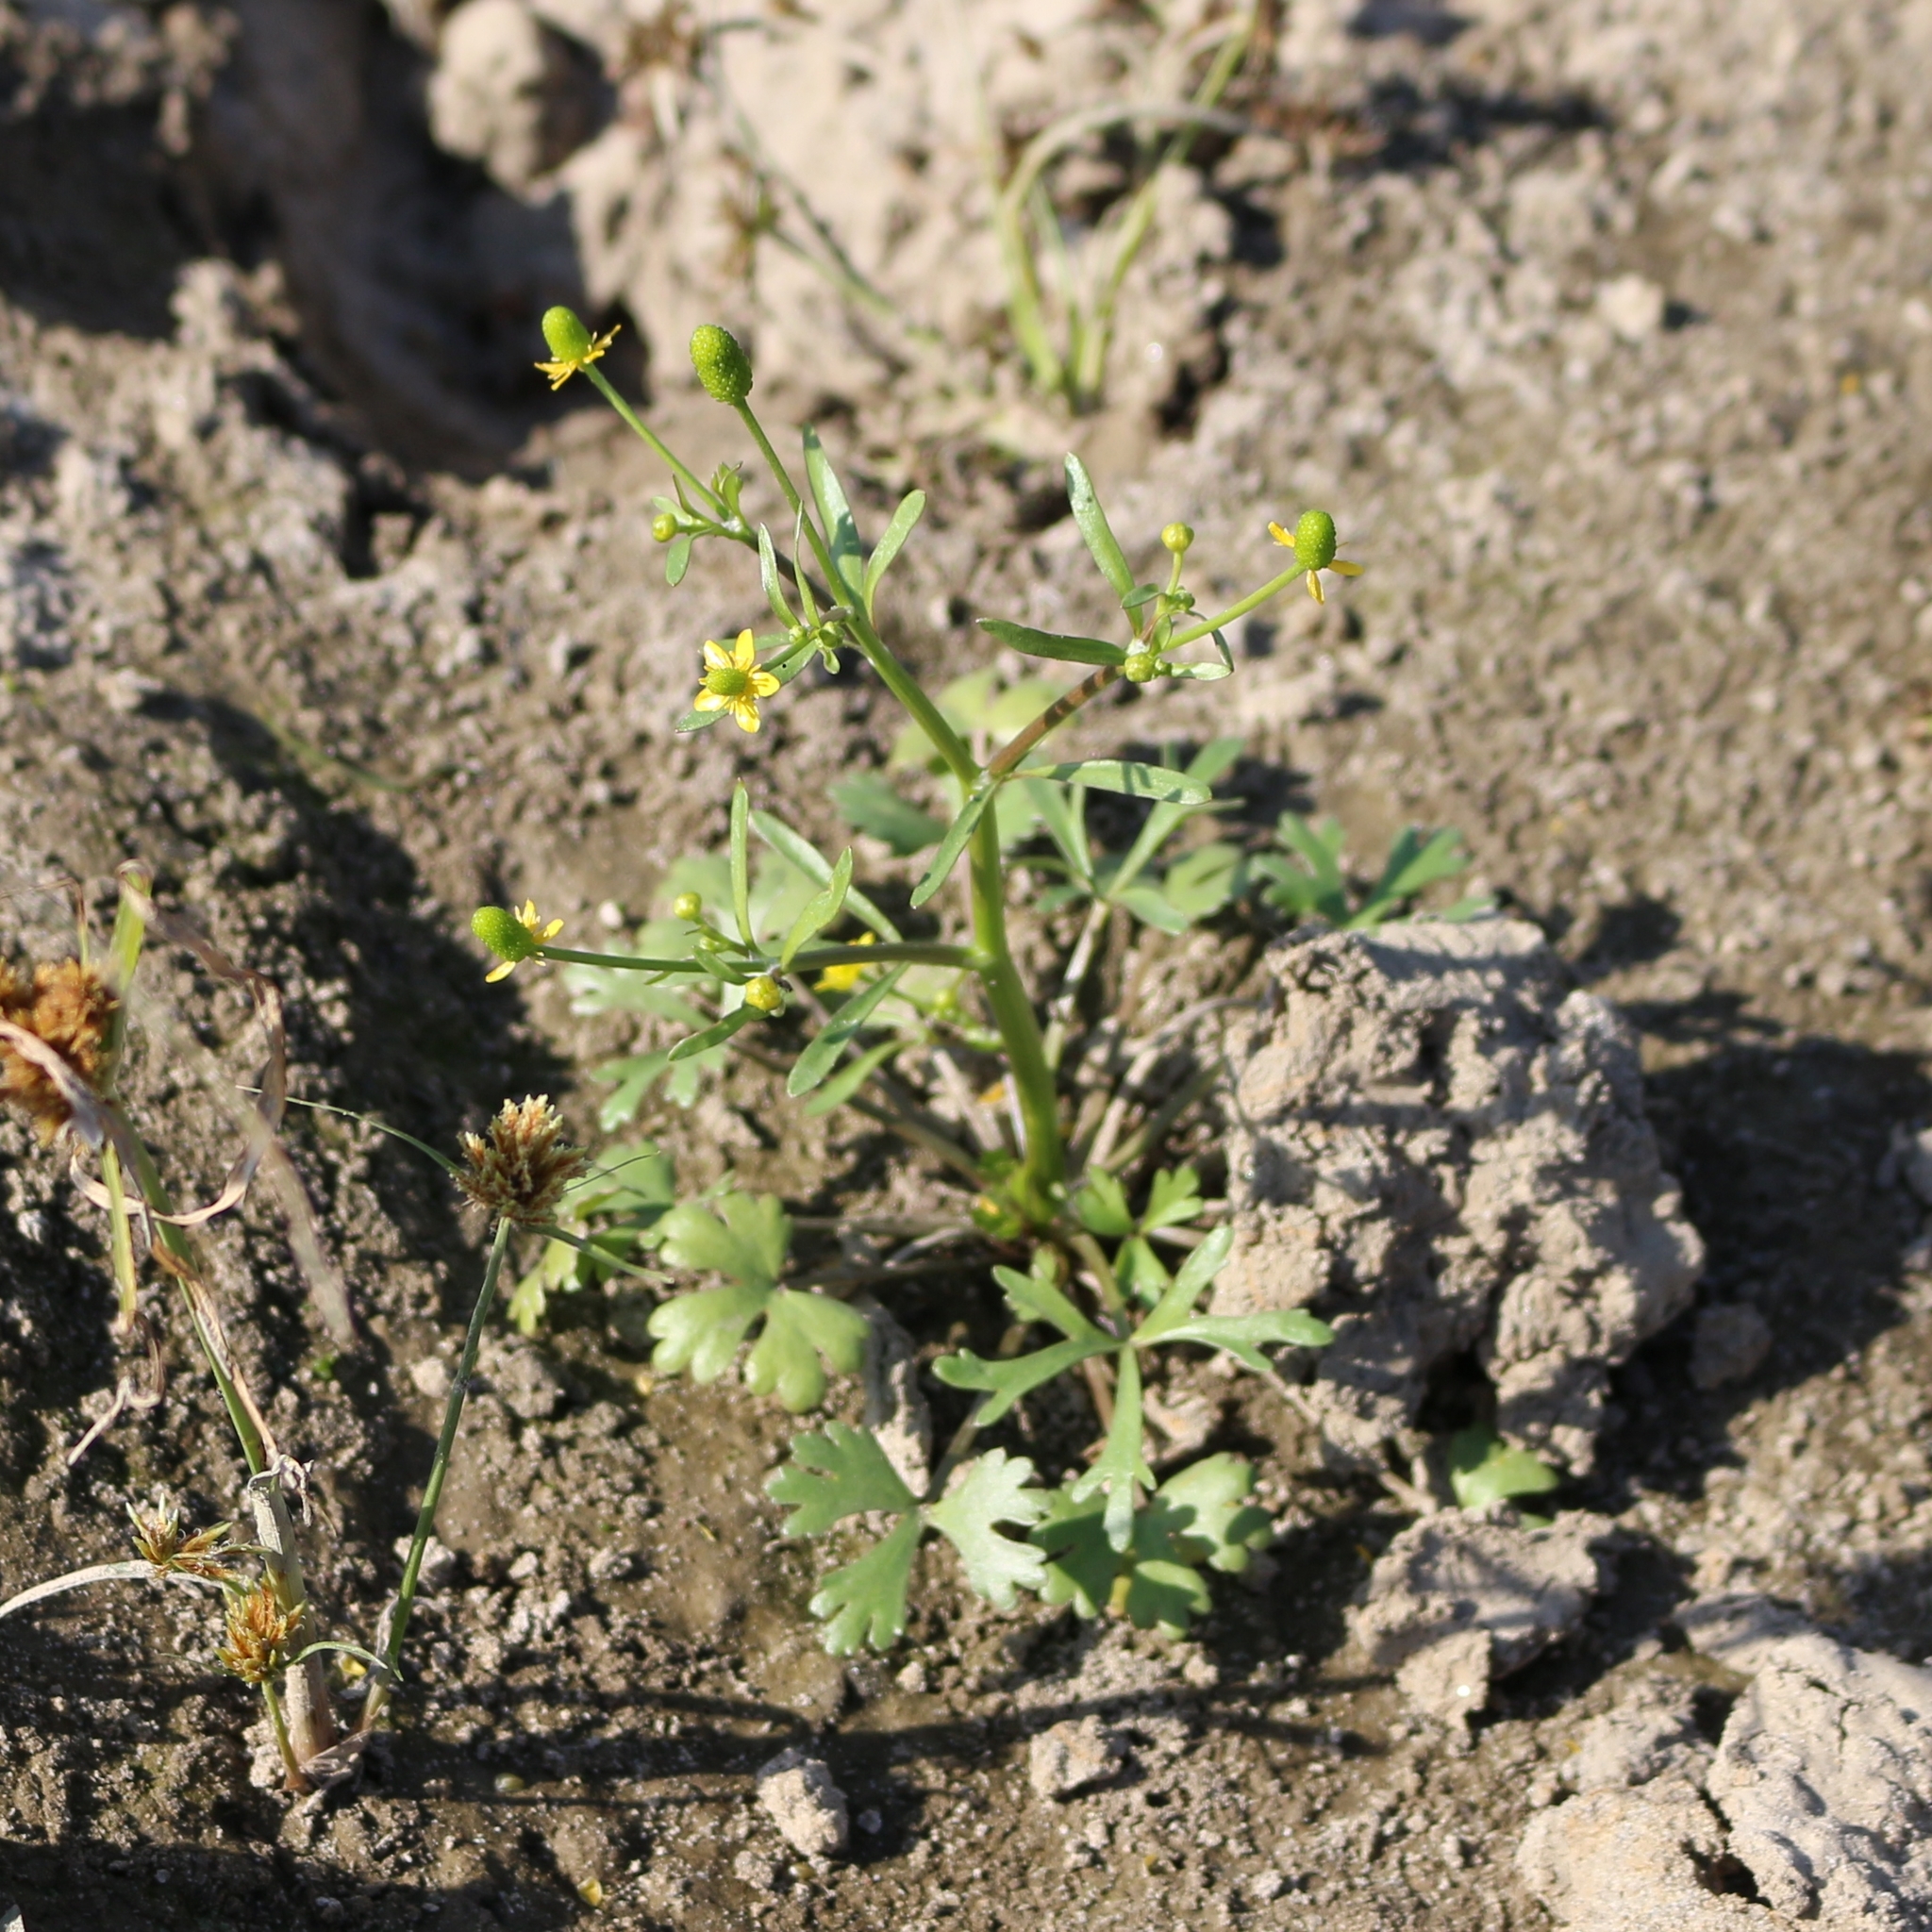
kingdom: Plantae
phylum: Tracheophyta
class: Magnoliopsida
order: Ranunculales
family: Ranunculaceae
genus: Ranunculus
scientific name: Ranunculus sceleratus
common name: Celery-leaved buttercup
